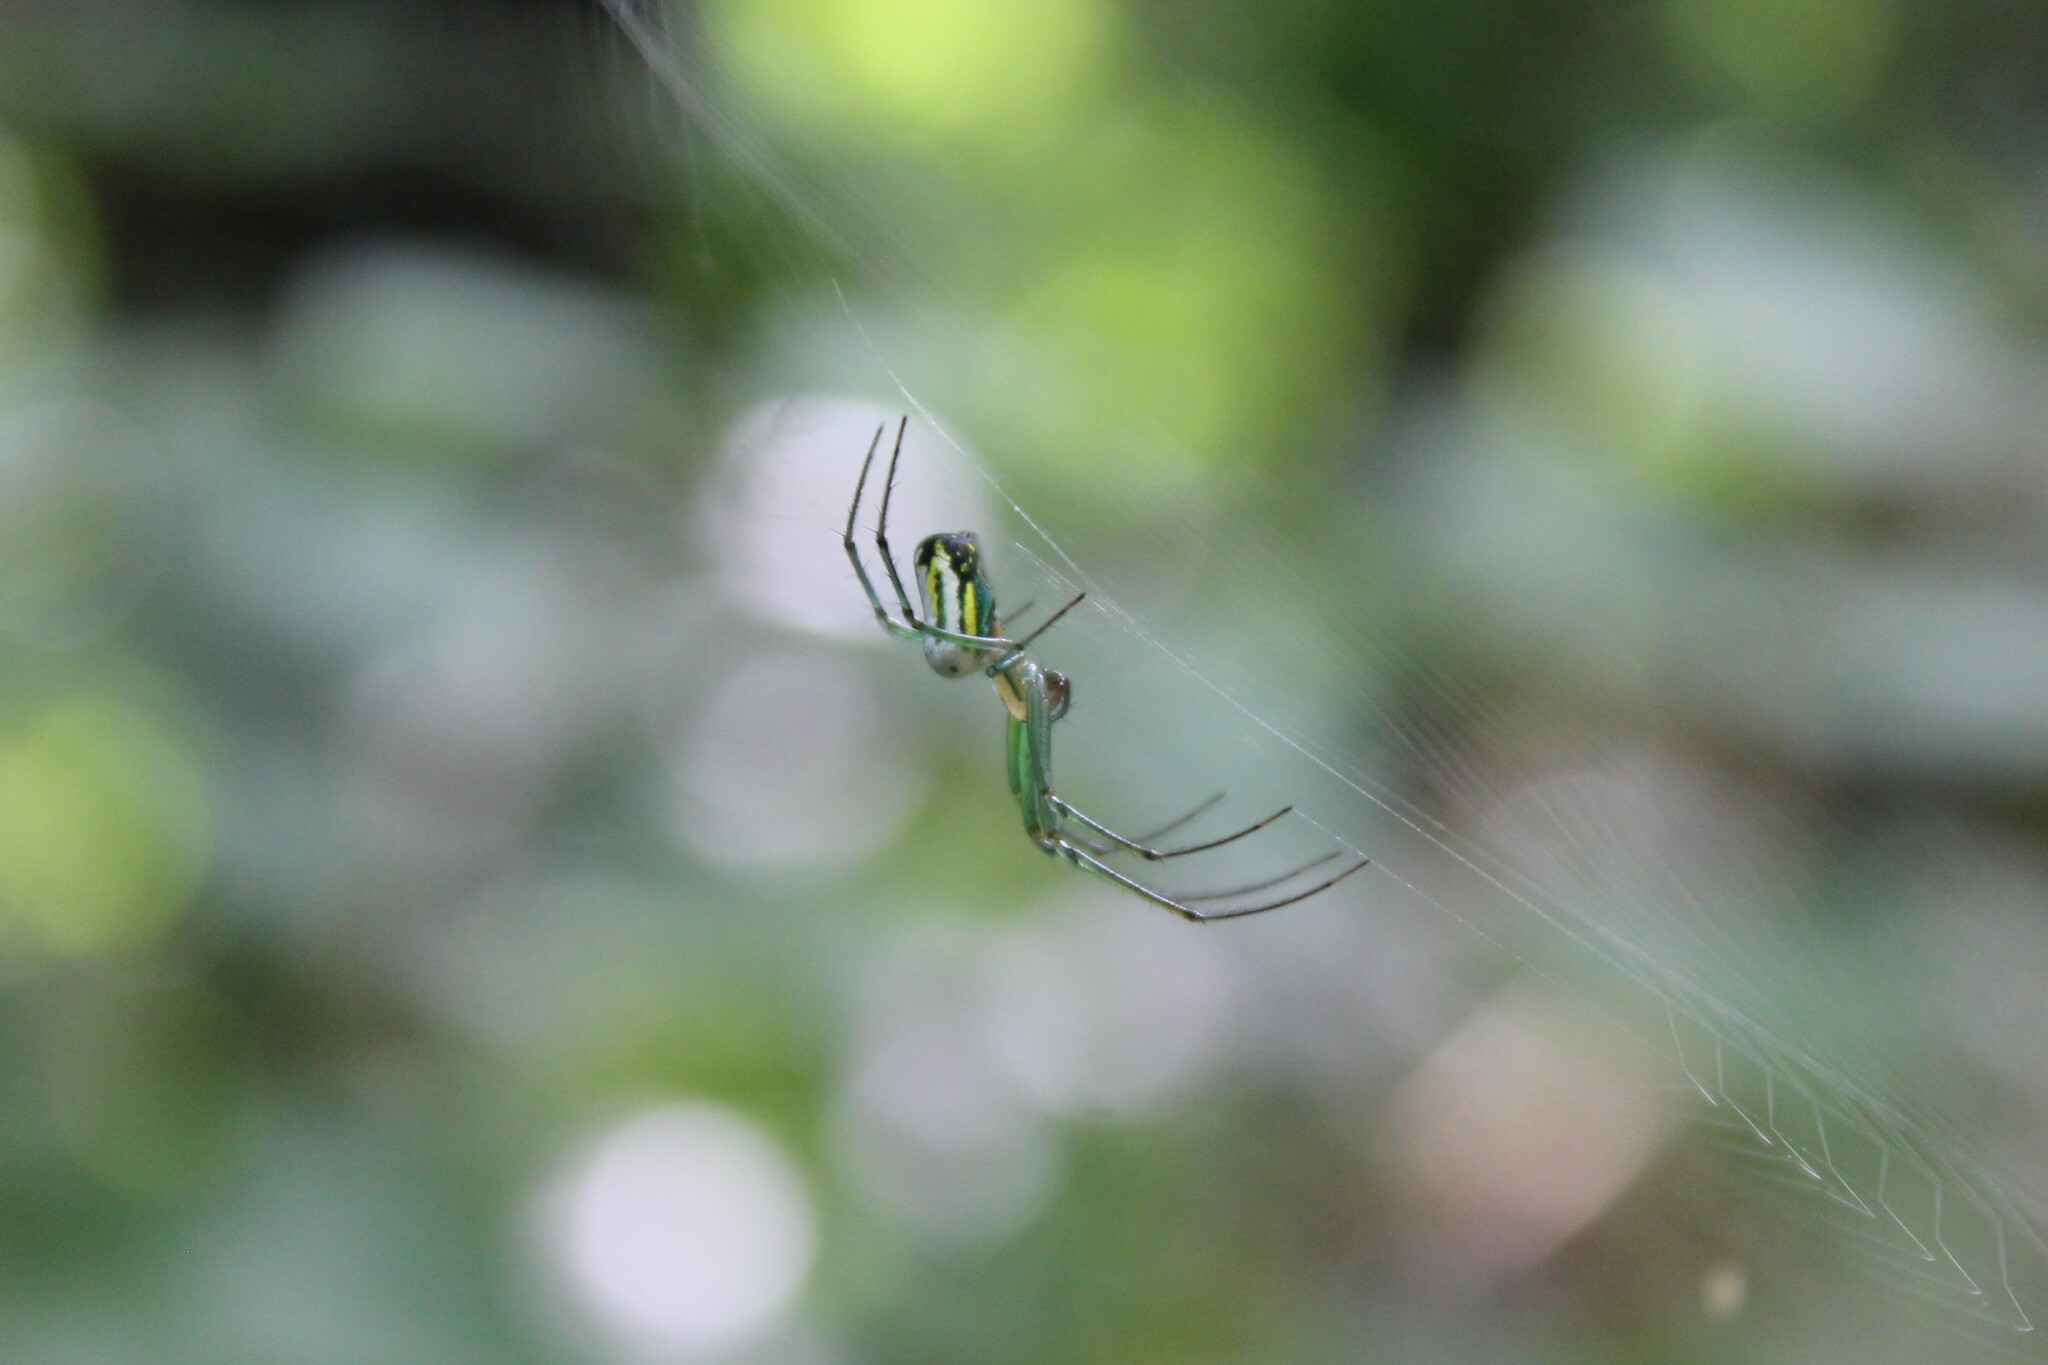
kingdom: Animalia
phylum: Arthropoda
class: Arachnida
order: Araneae
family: Tetragnathidae
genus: Leucauge
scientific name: Leucauge venusta
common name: Longjawed orb weavers
